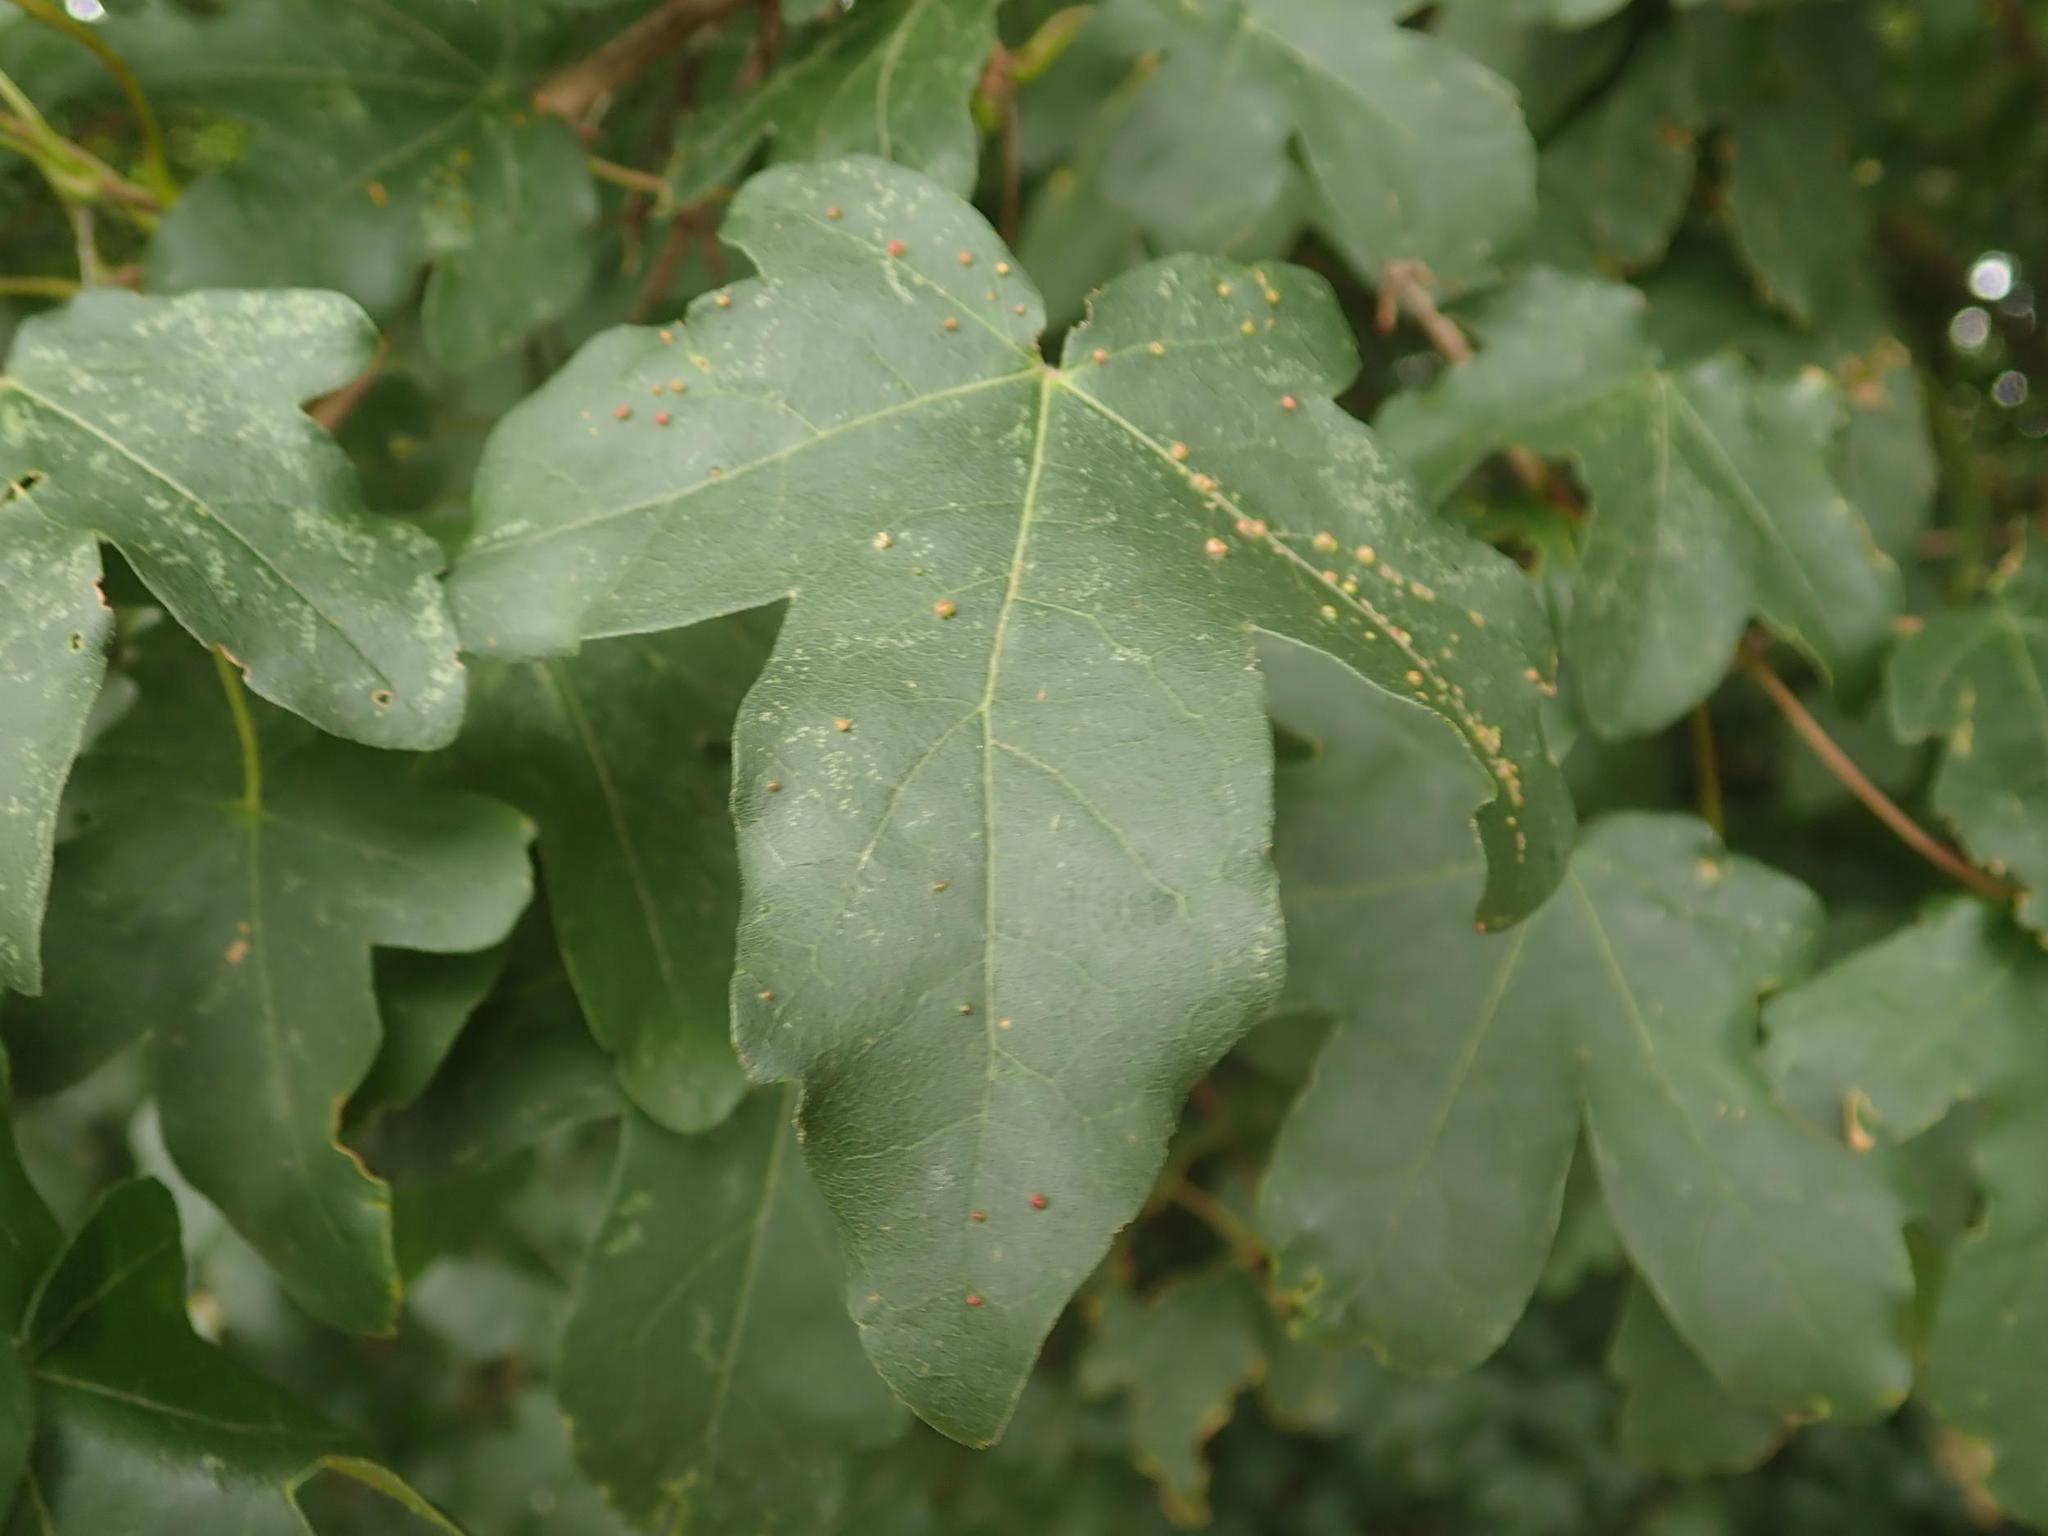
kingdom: Plantae
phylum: Tracheophyta
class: Magnoliopsida
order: Sapindales
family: Sapindaceae
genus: Acer
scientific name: Acer campestre
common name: Field maple
